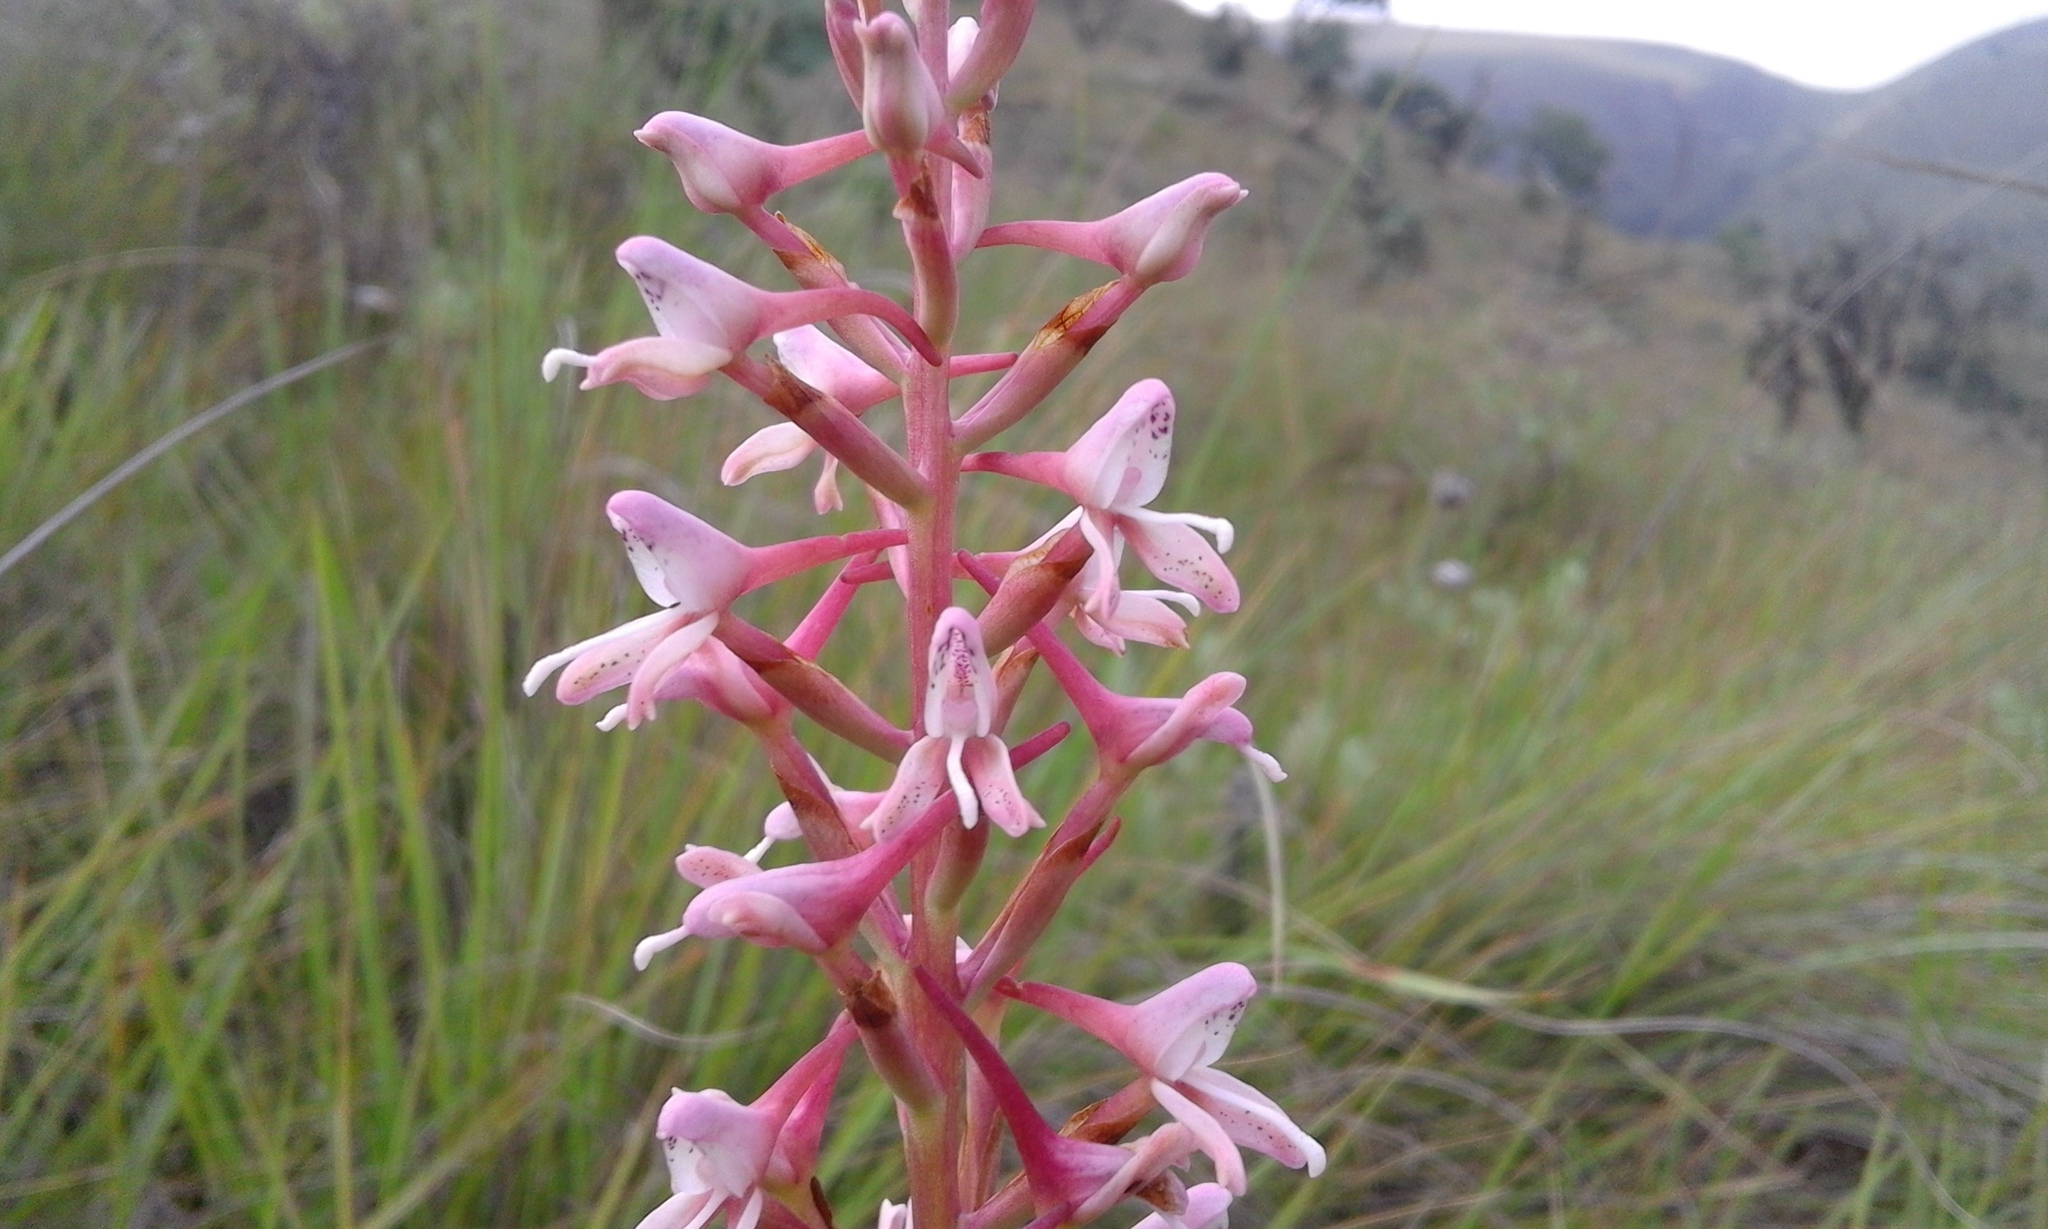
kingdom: Plantae
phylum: Tracheophyta
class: Liliopsida
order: Asparagales
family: Orchidaceae
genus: Disa
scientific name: Disa patula
